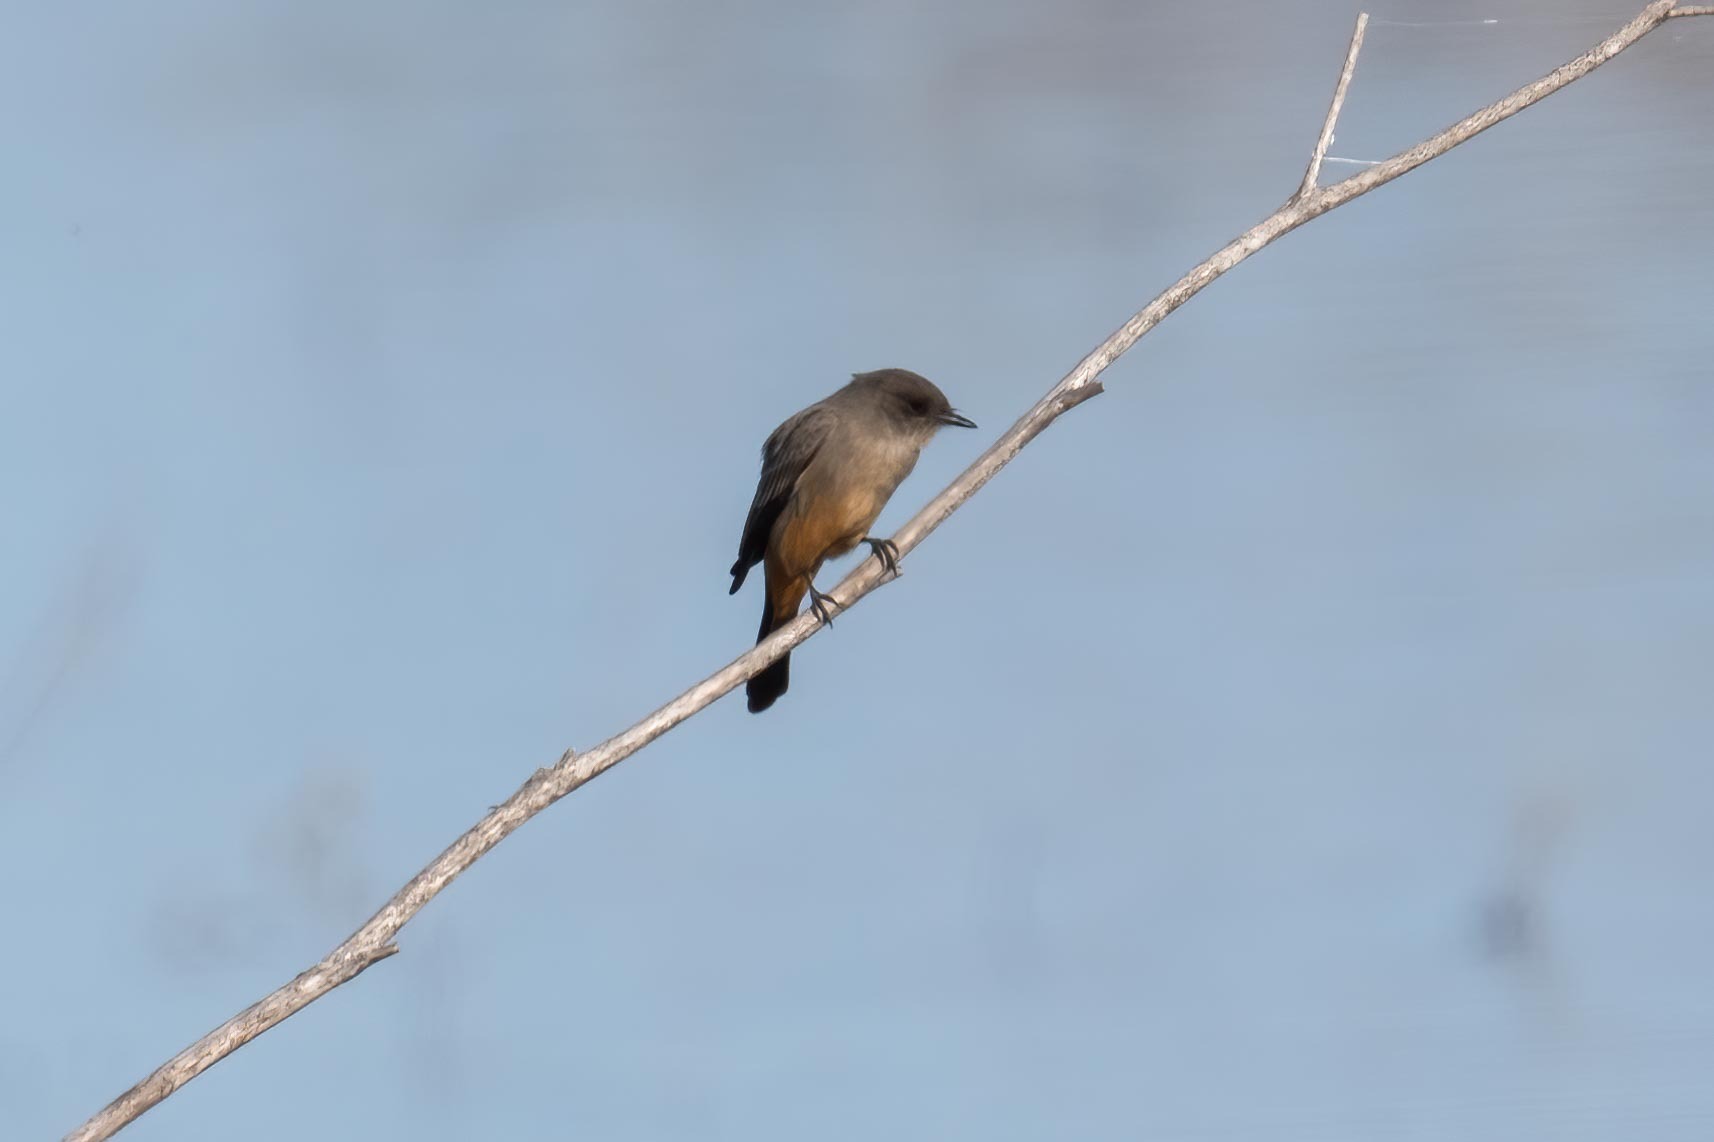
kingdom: Animalia
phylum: Chordata
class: Aves
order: Passeriformes
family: Tyrannidae
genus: Sayornis
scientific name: Sayornis saya
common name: Say's phoebe
